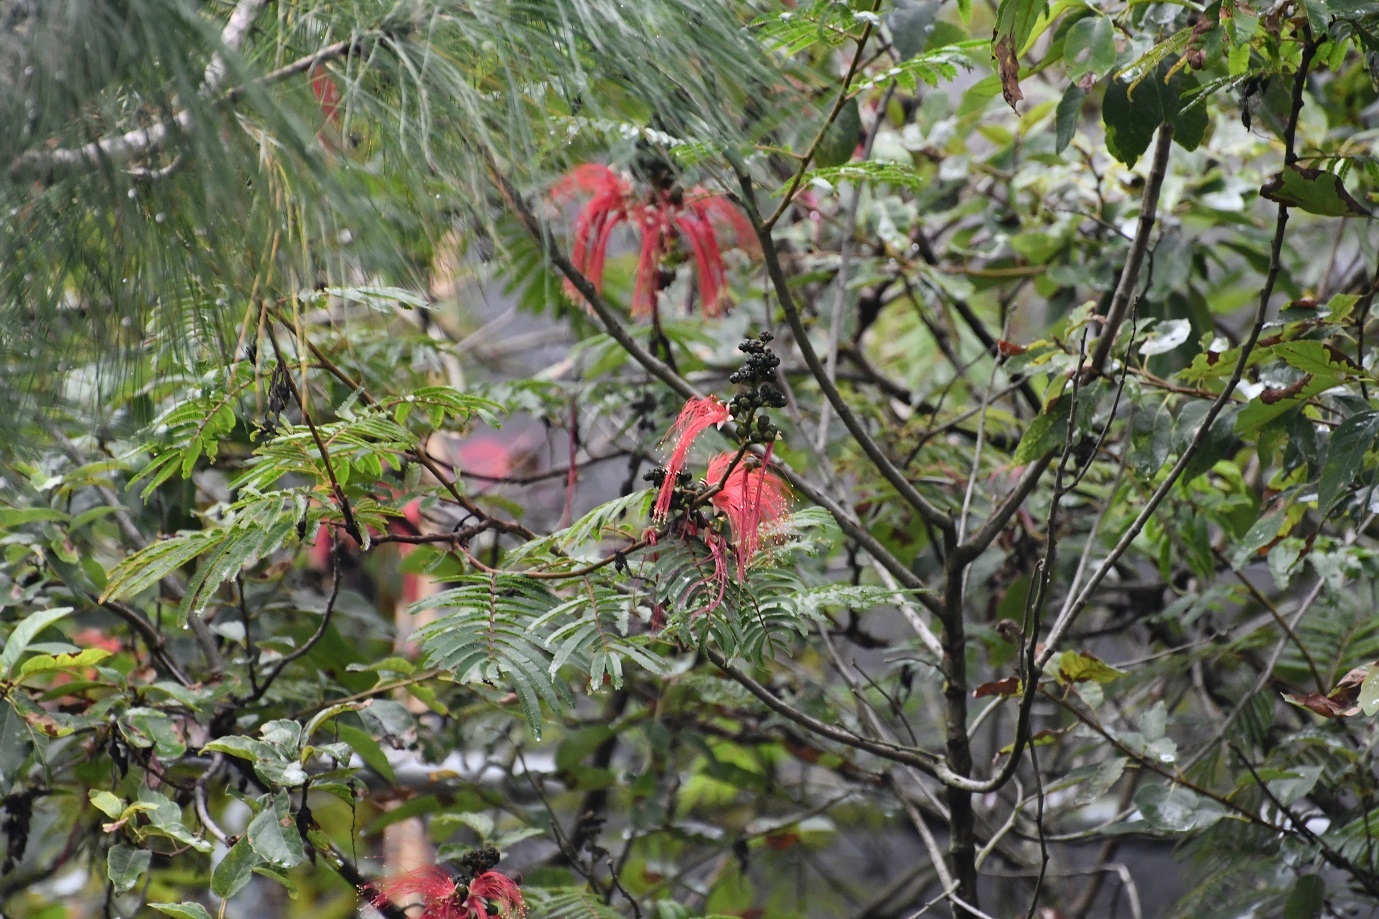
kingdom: Plantae
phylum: Tracheophyta
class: Magnoliopsida
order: Fabales
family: Fabaceae
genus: Calliandra
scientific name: Calliandra houstoniana
